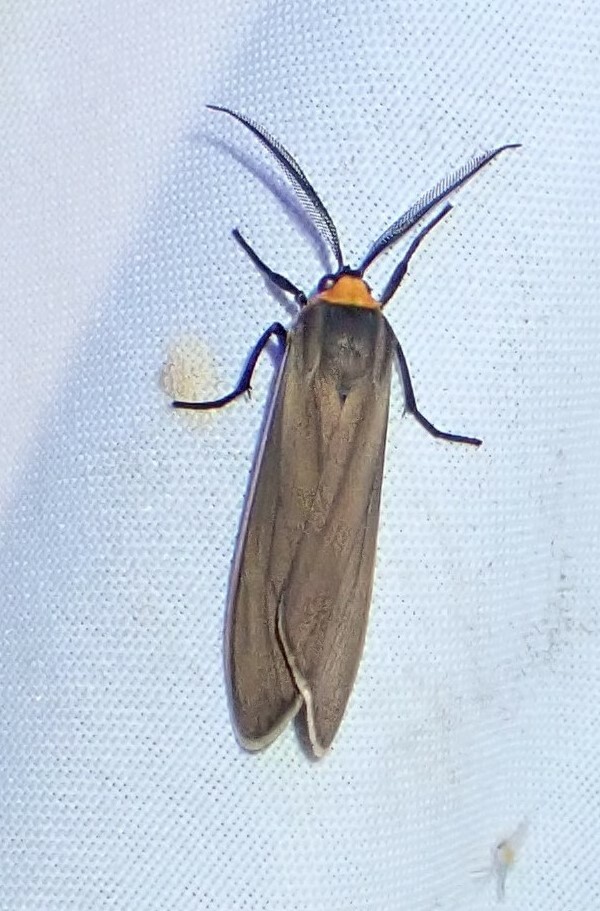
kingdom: Animalia
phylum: Arthropoda
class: Insecta
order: Lepidoptera
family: Erebidae
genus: Cisseps
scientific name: Cisseps fulvicollis
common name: Yellow-collared scape moth
